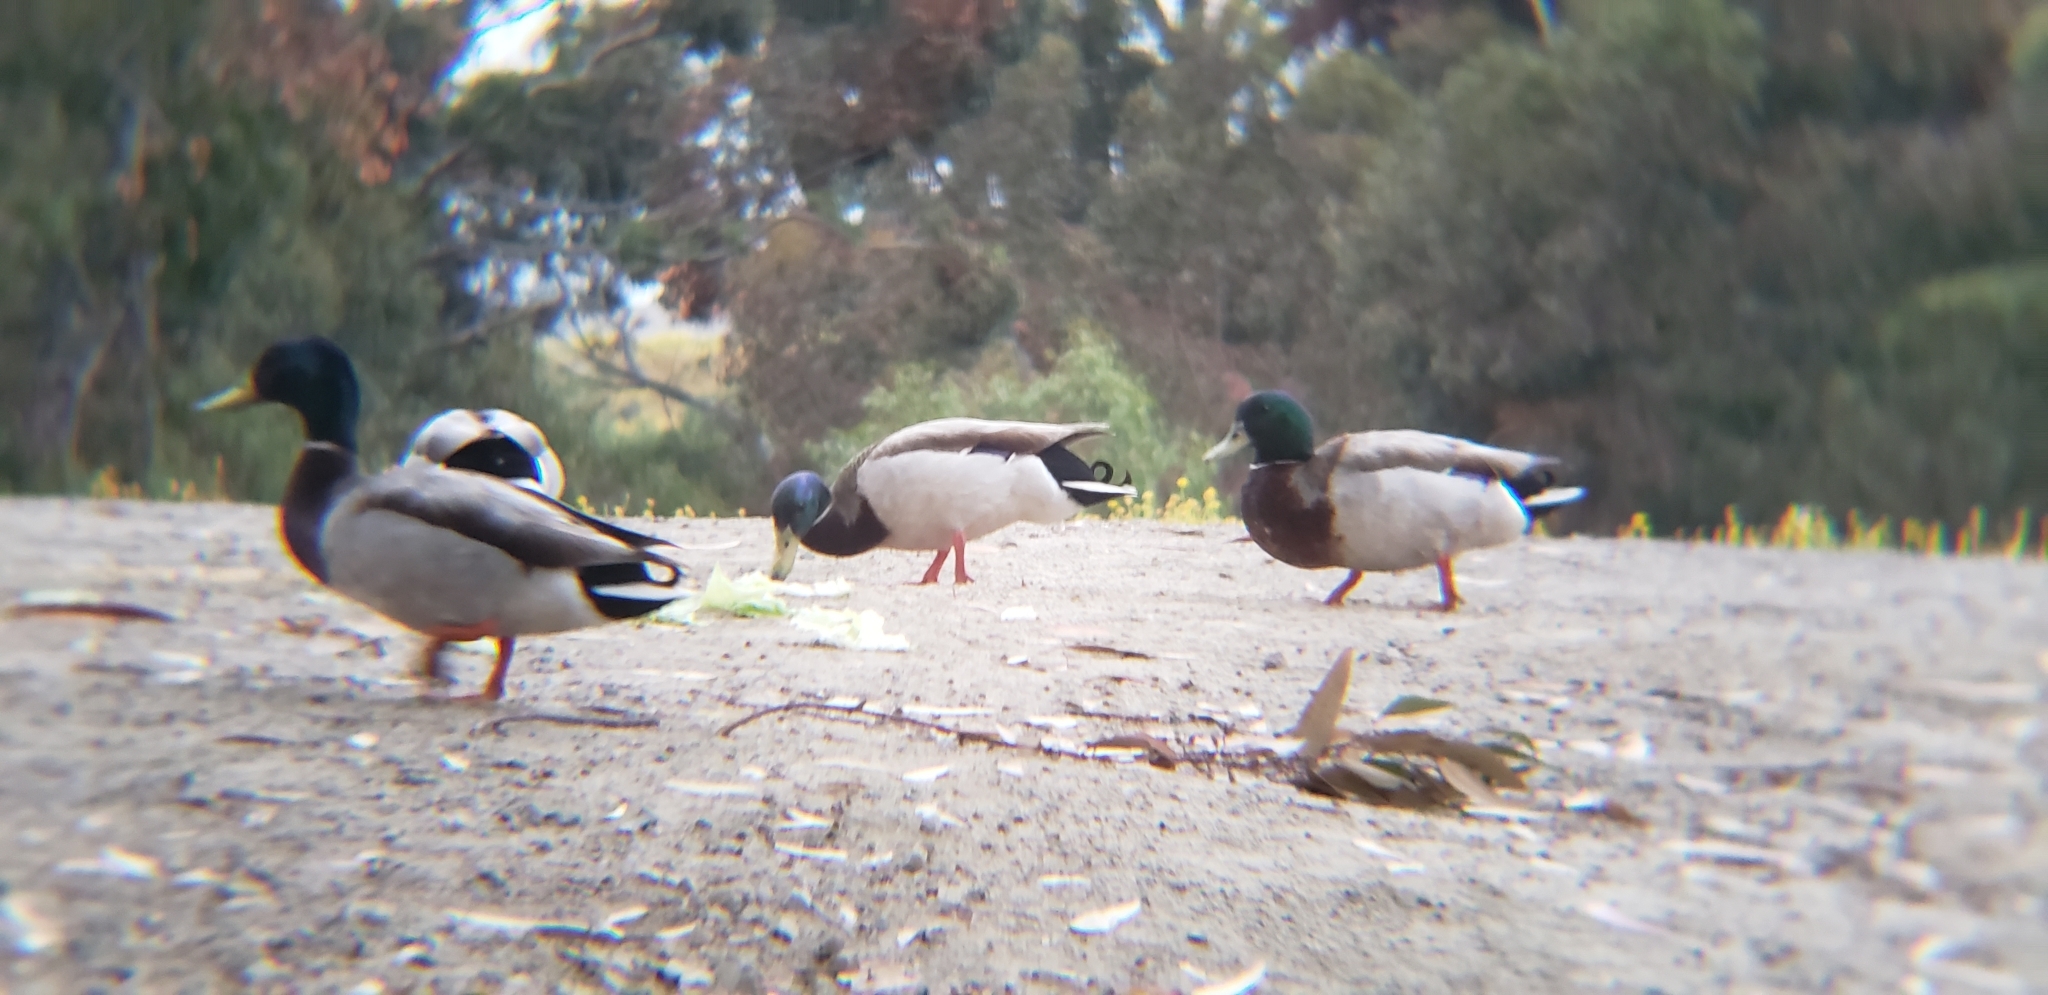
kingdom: Animalia
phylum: Chordata
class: Aves
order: Anseriformes
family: Anatidae
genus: Anas
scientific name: Anas platyrhynchos
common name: Mallard
